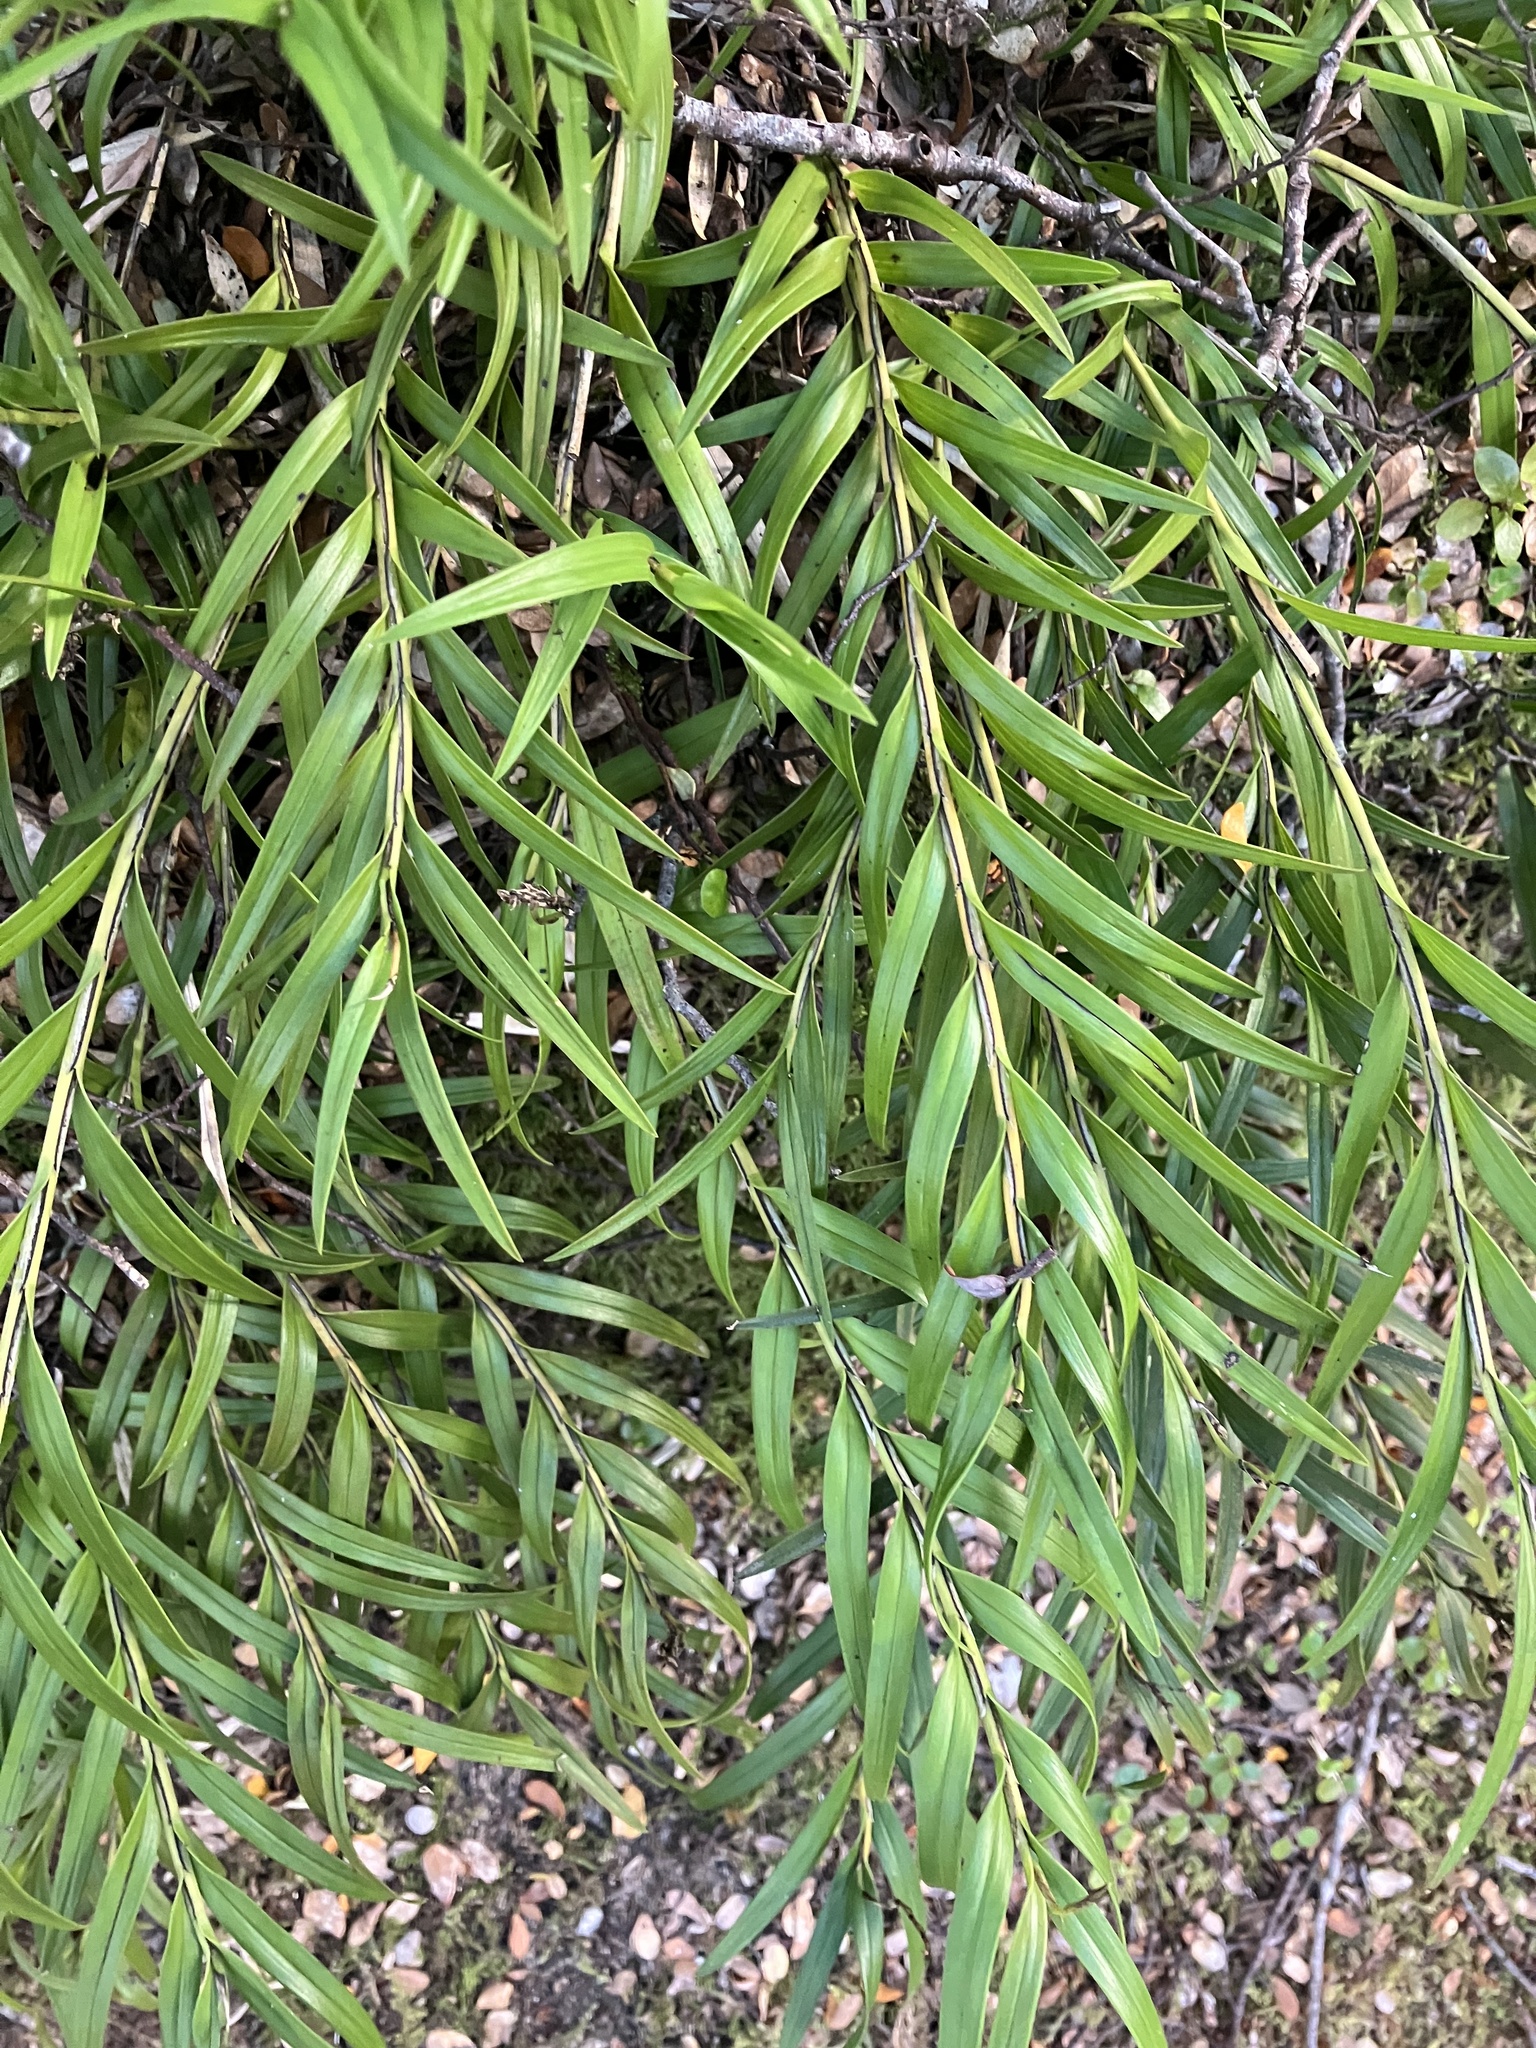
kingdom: Plantae
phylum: Tracheophyta
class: Liliopsida
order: Asparagales
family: Orchidaceae
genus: Earina
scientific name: Earina autumnalis
